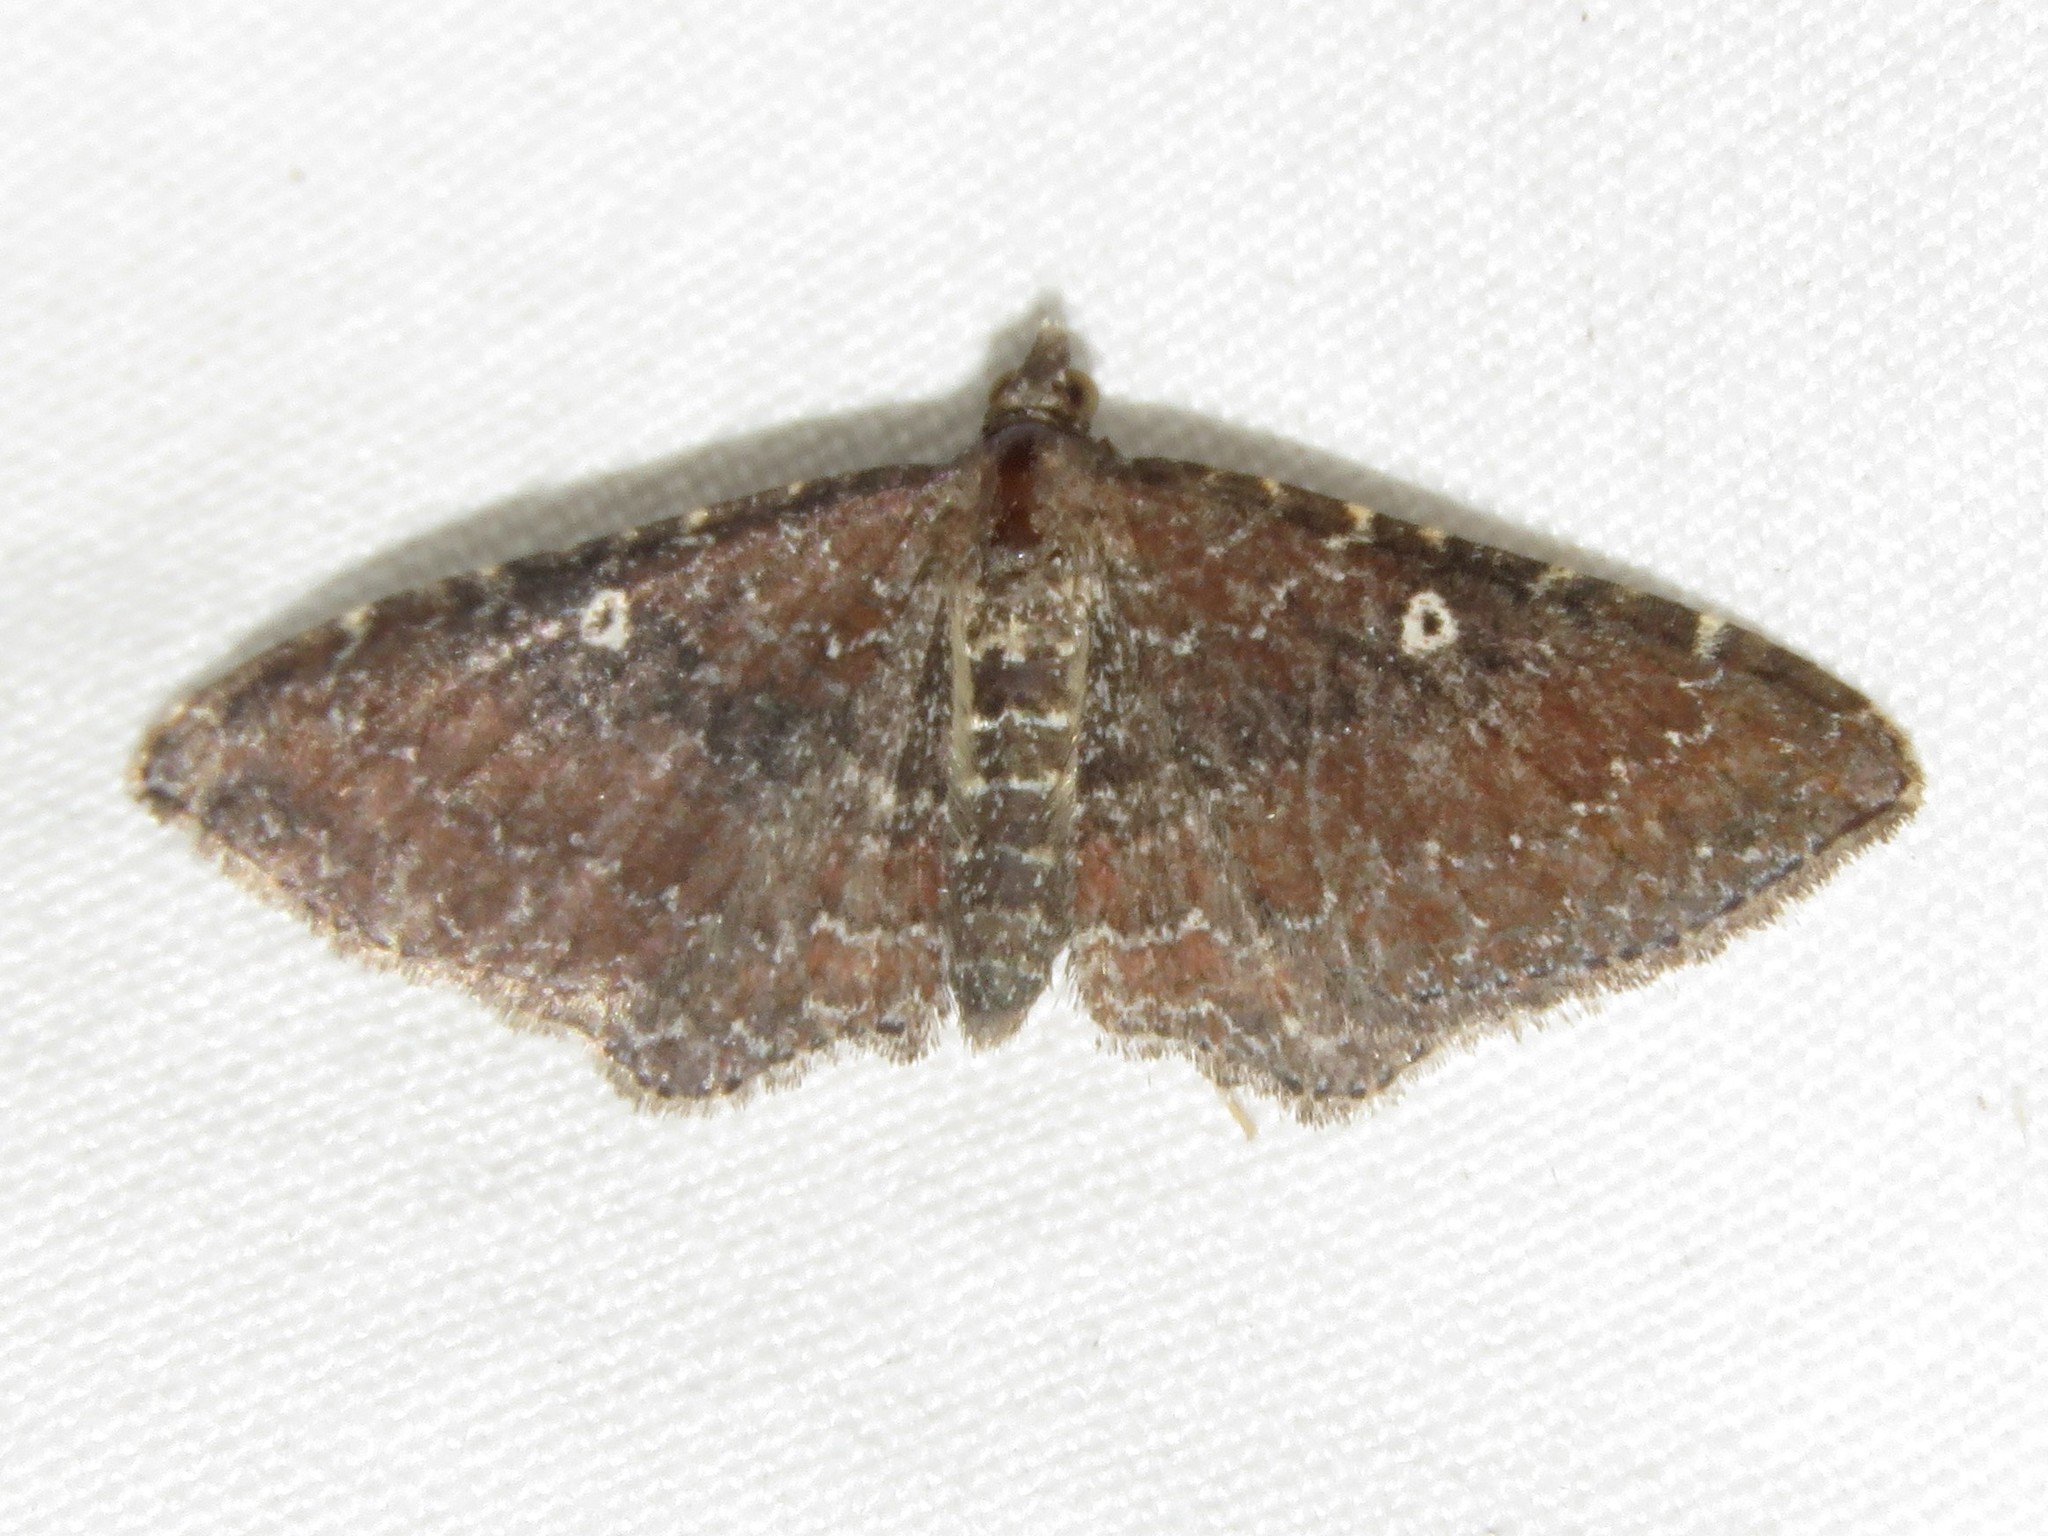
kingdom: Animalia
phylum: Arthropoda
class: Insecta
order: Lepidoptera
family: Geometridae
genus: Orthonama
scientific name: Orthonama obstipata
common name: The gem
